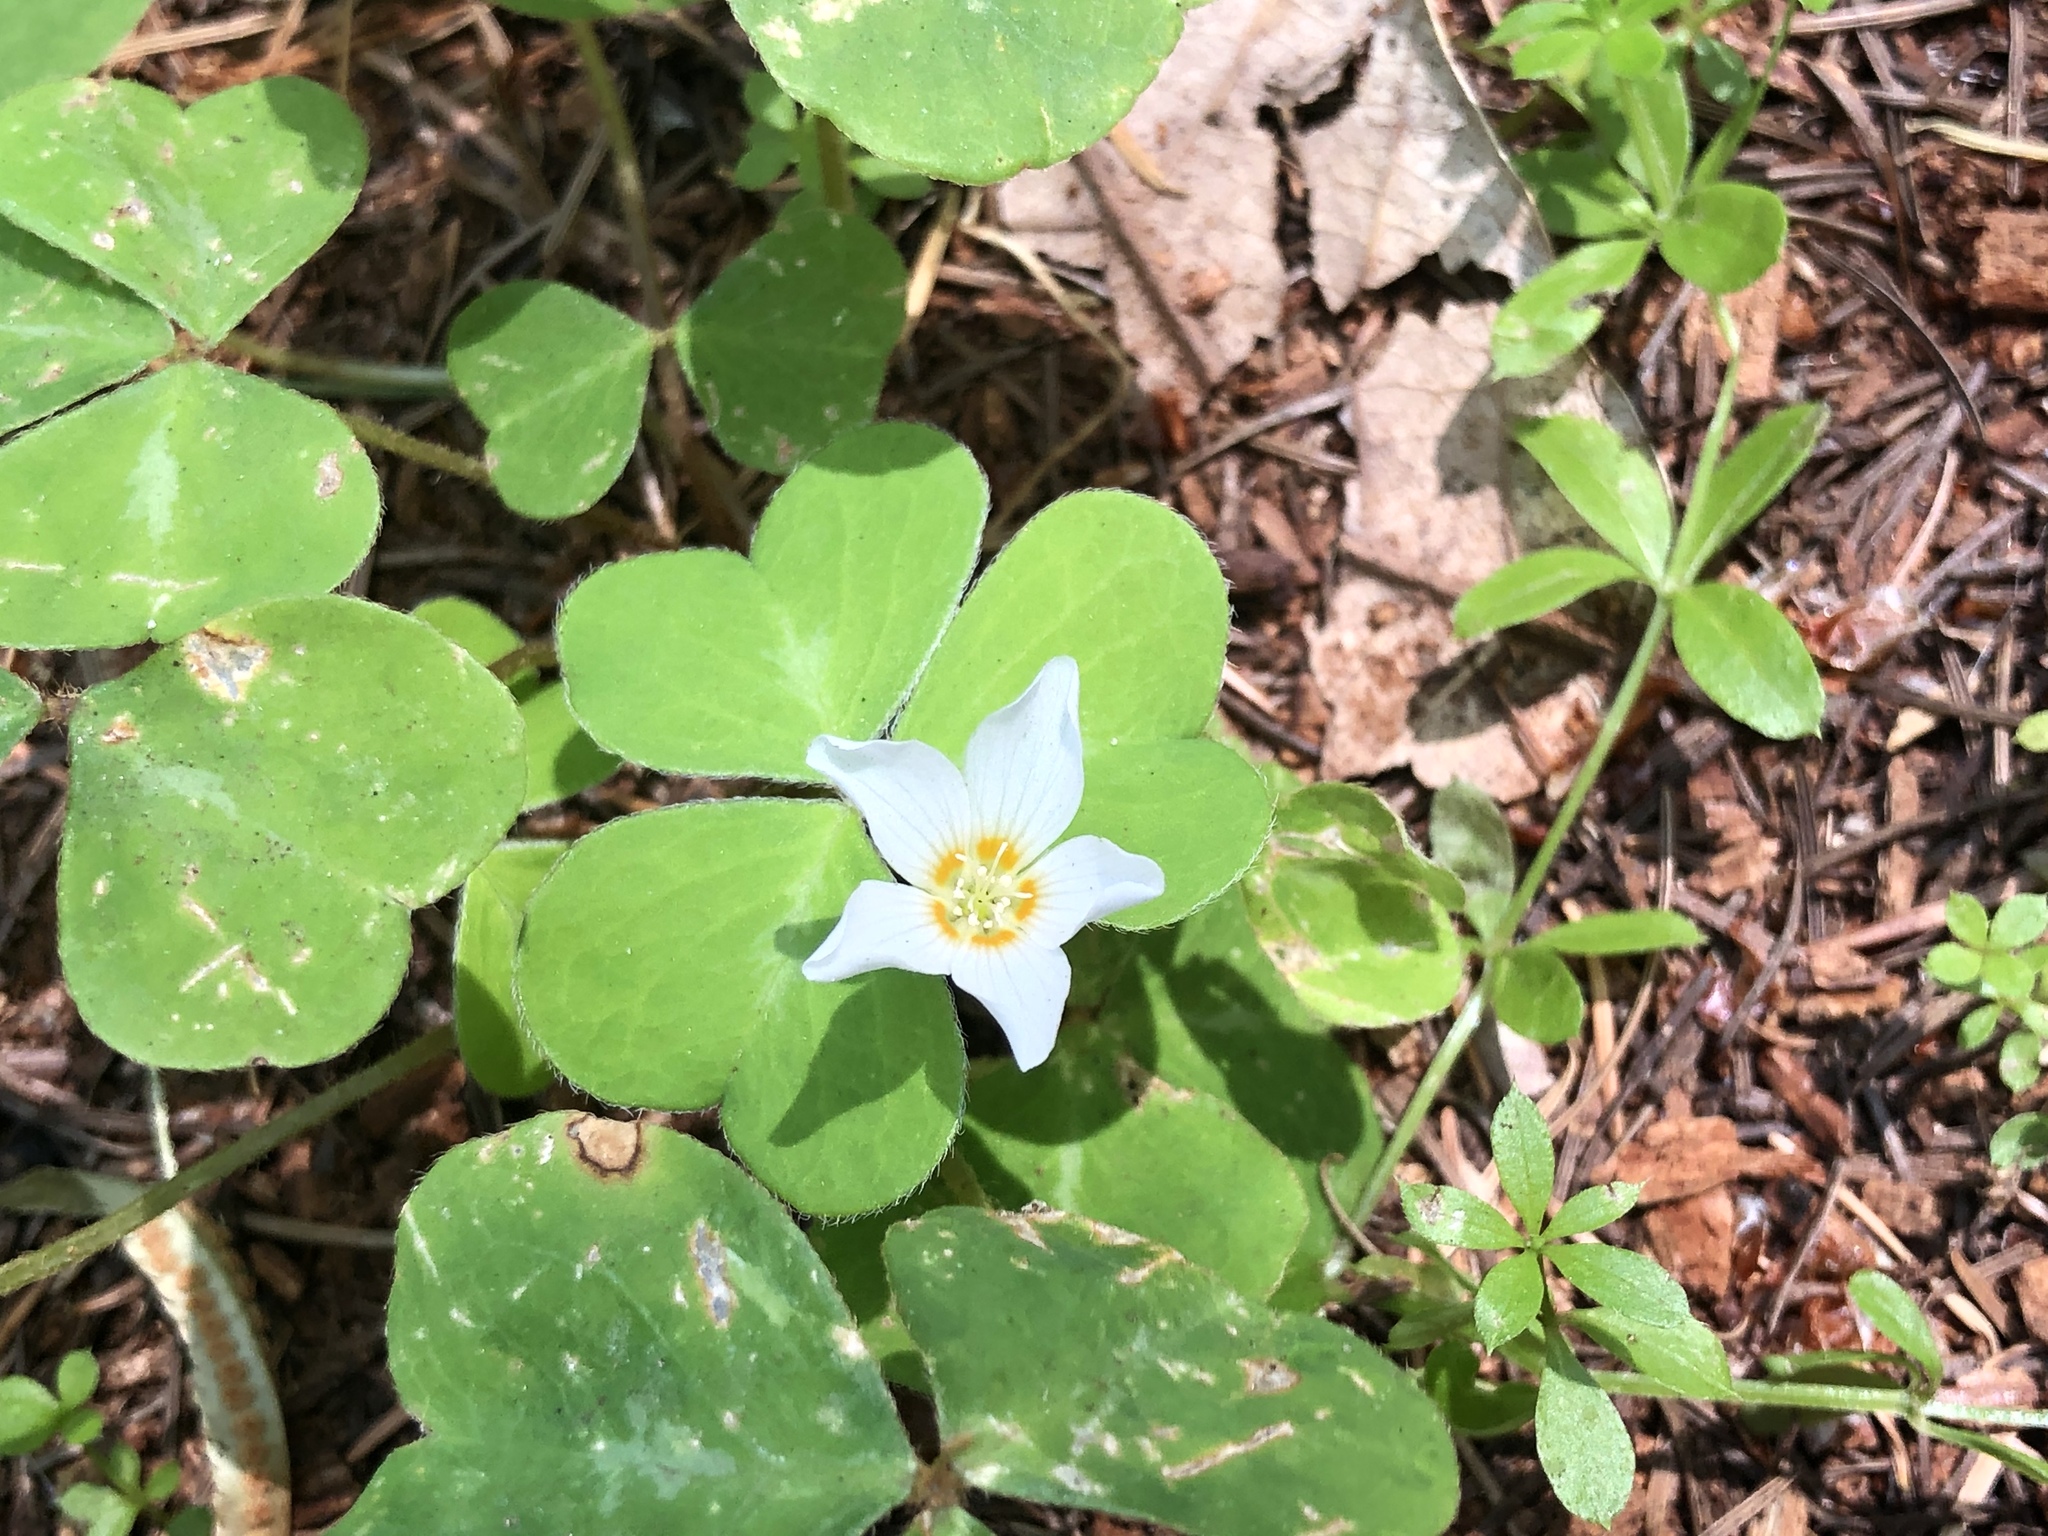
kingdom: Plantae
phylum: Tracheophyta
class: Magnoliopsida
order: Oxalidales
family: Oxalidaceae
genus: Oxalis
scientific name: Oxalis oregana
